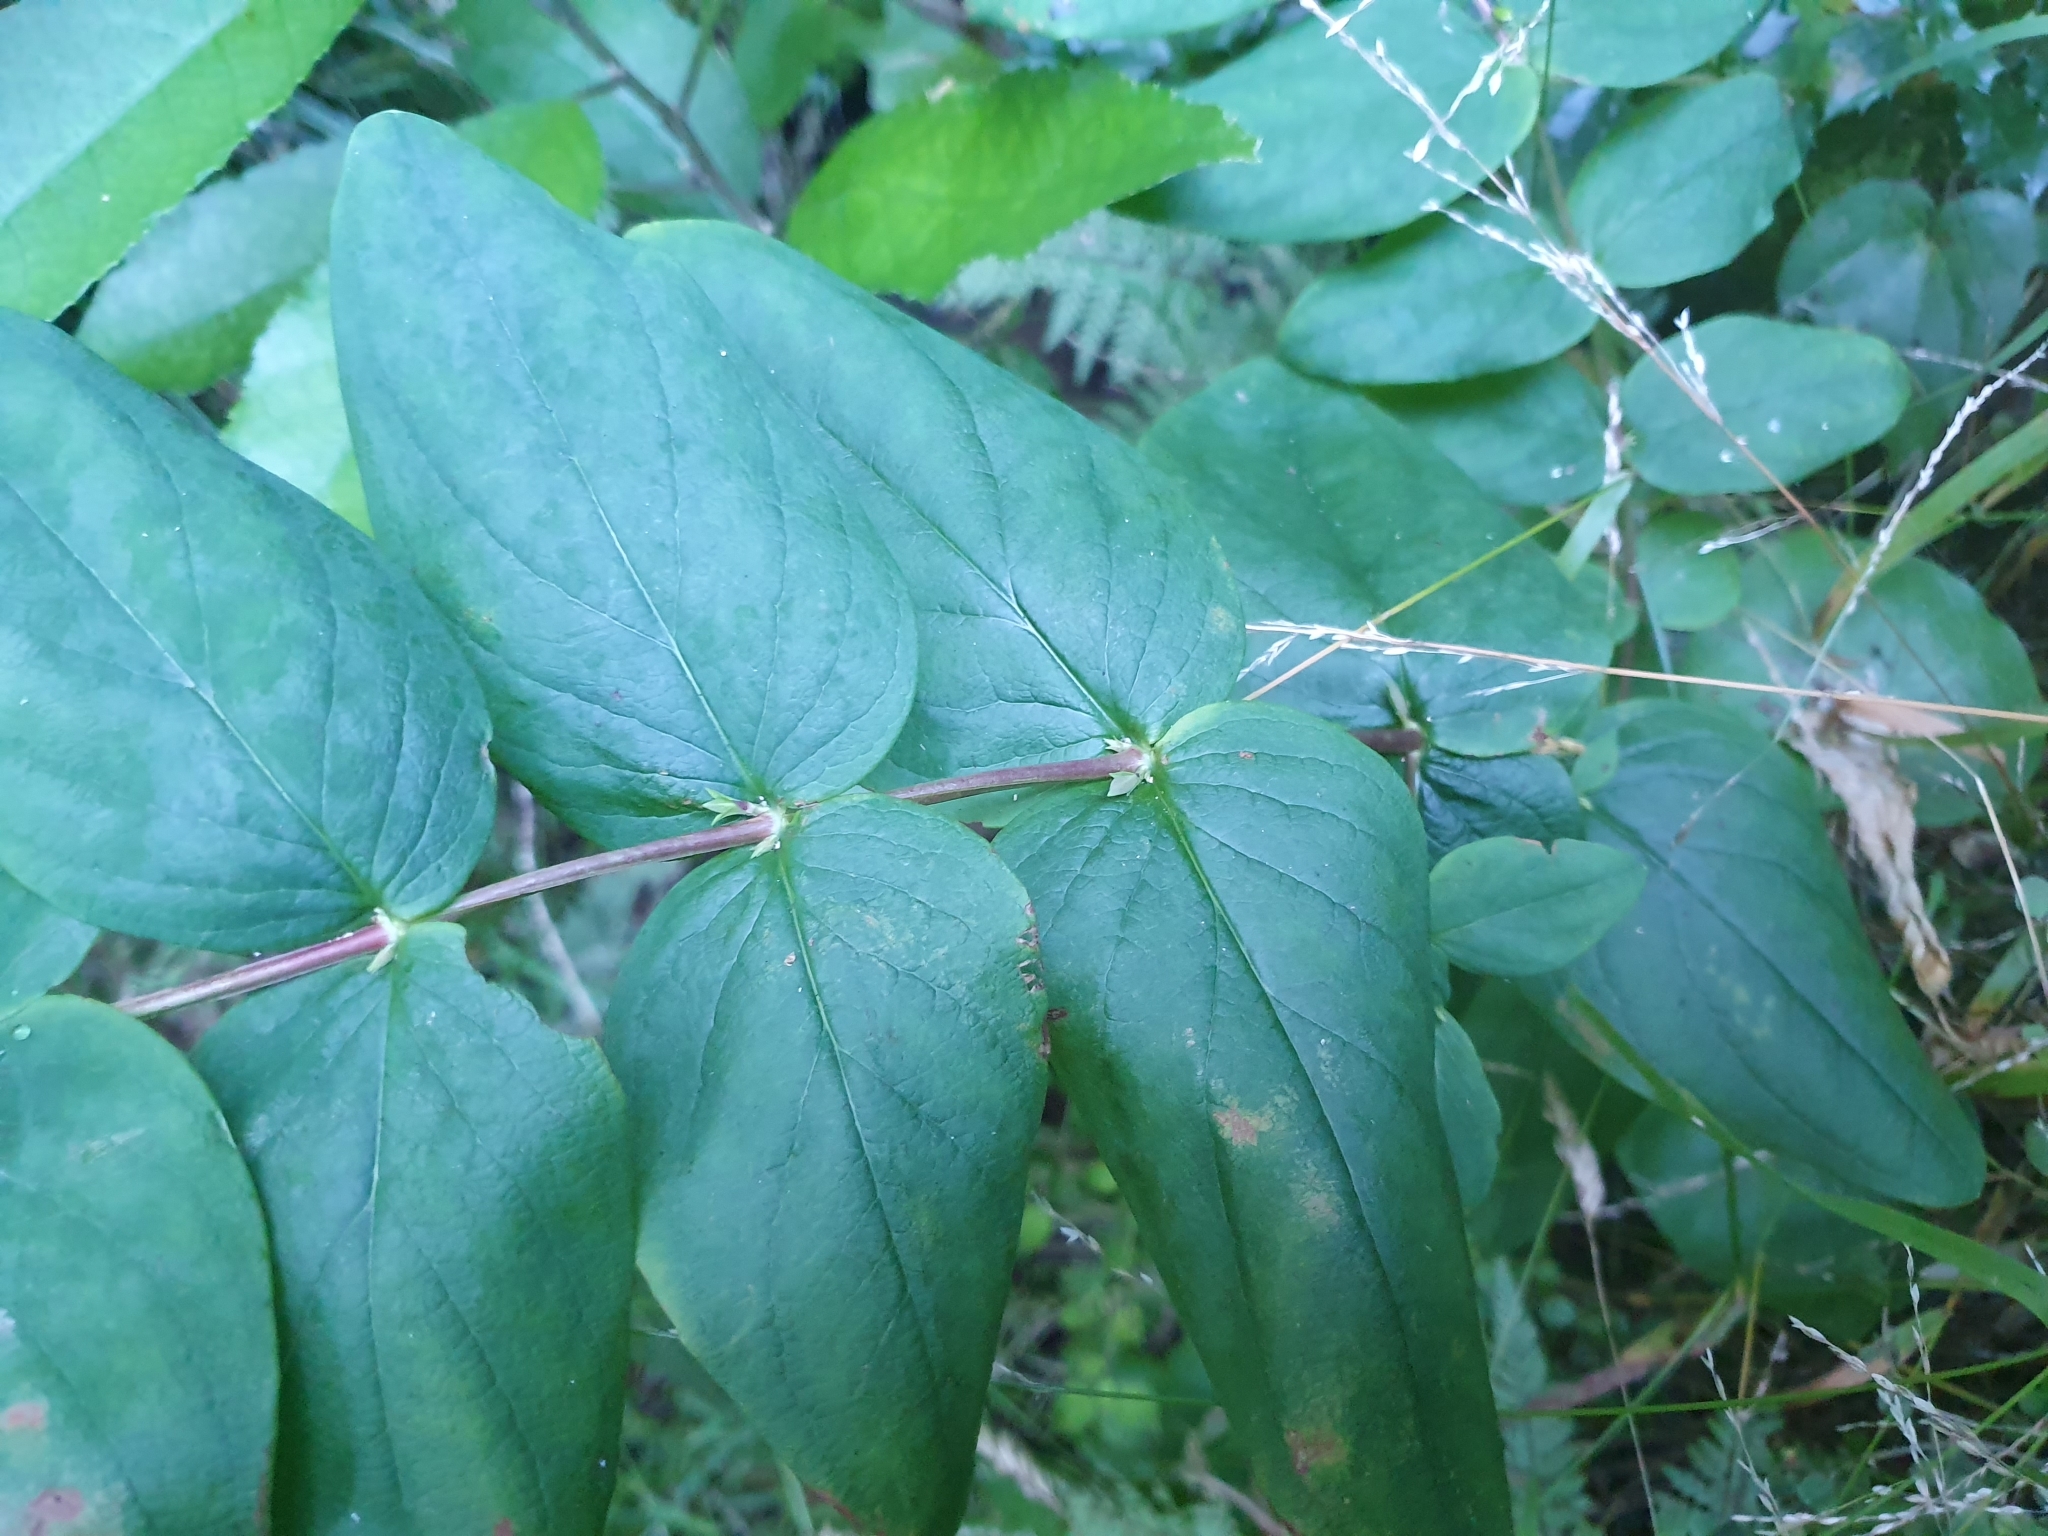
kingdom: Plantae
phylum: Tracheophyta
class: Magnoliopsida
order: Malpighiales
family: Hypericaceae
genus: Hypericum
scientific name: Hypericum androsaemum
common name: Sweet-amber
